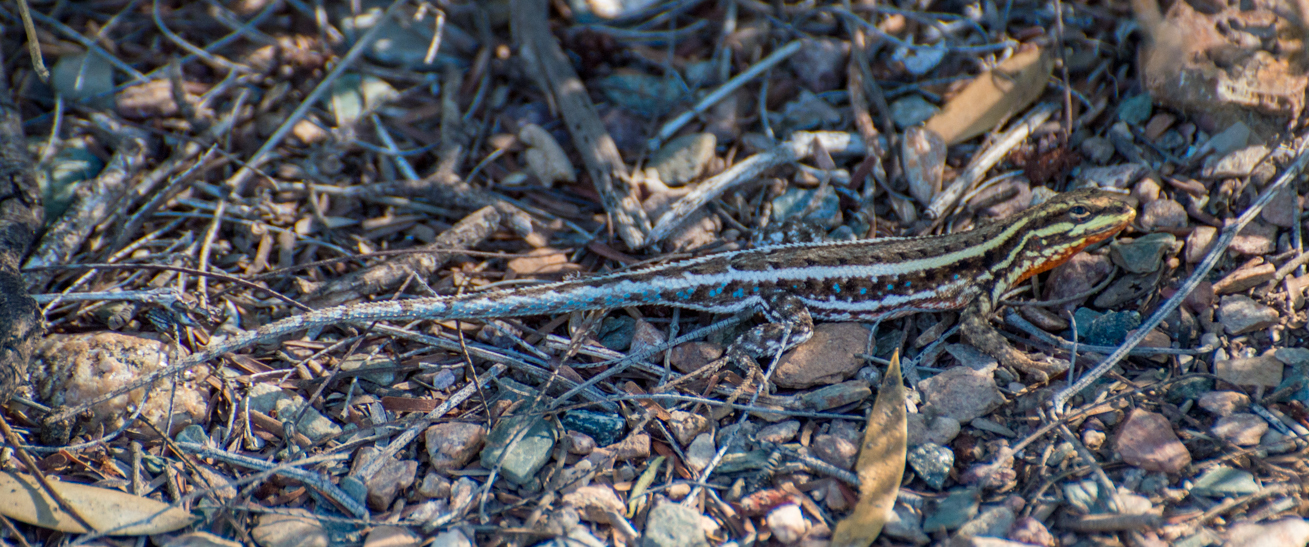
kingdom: Animalia
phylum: Chordata
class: Squamata
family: Liolaemidae
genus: Liolaemus
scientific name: Liolaemus chacoensis
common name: Chaco tree iguana
